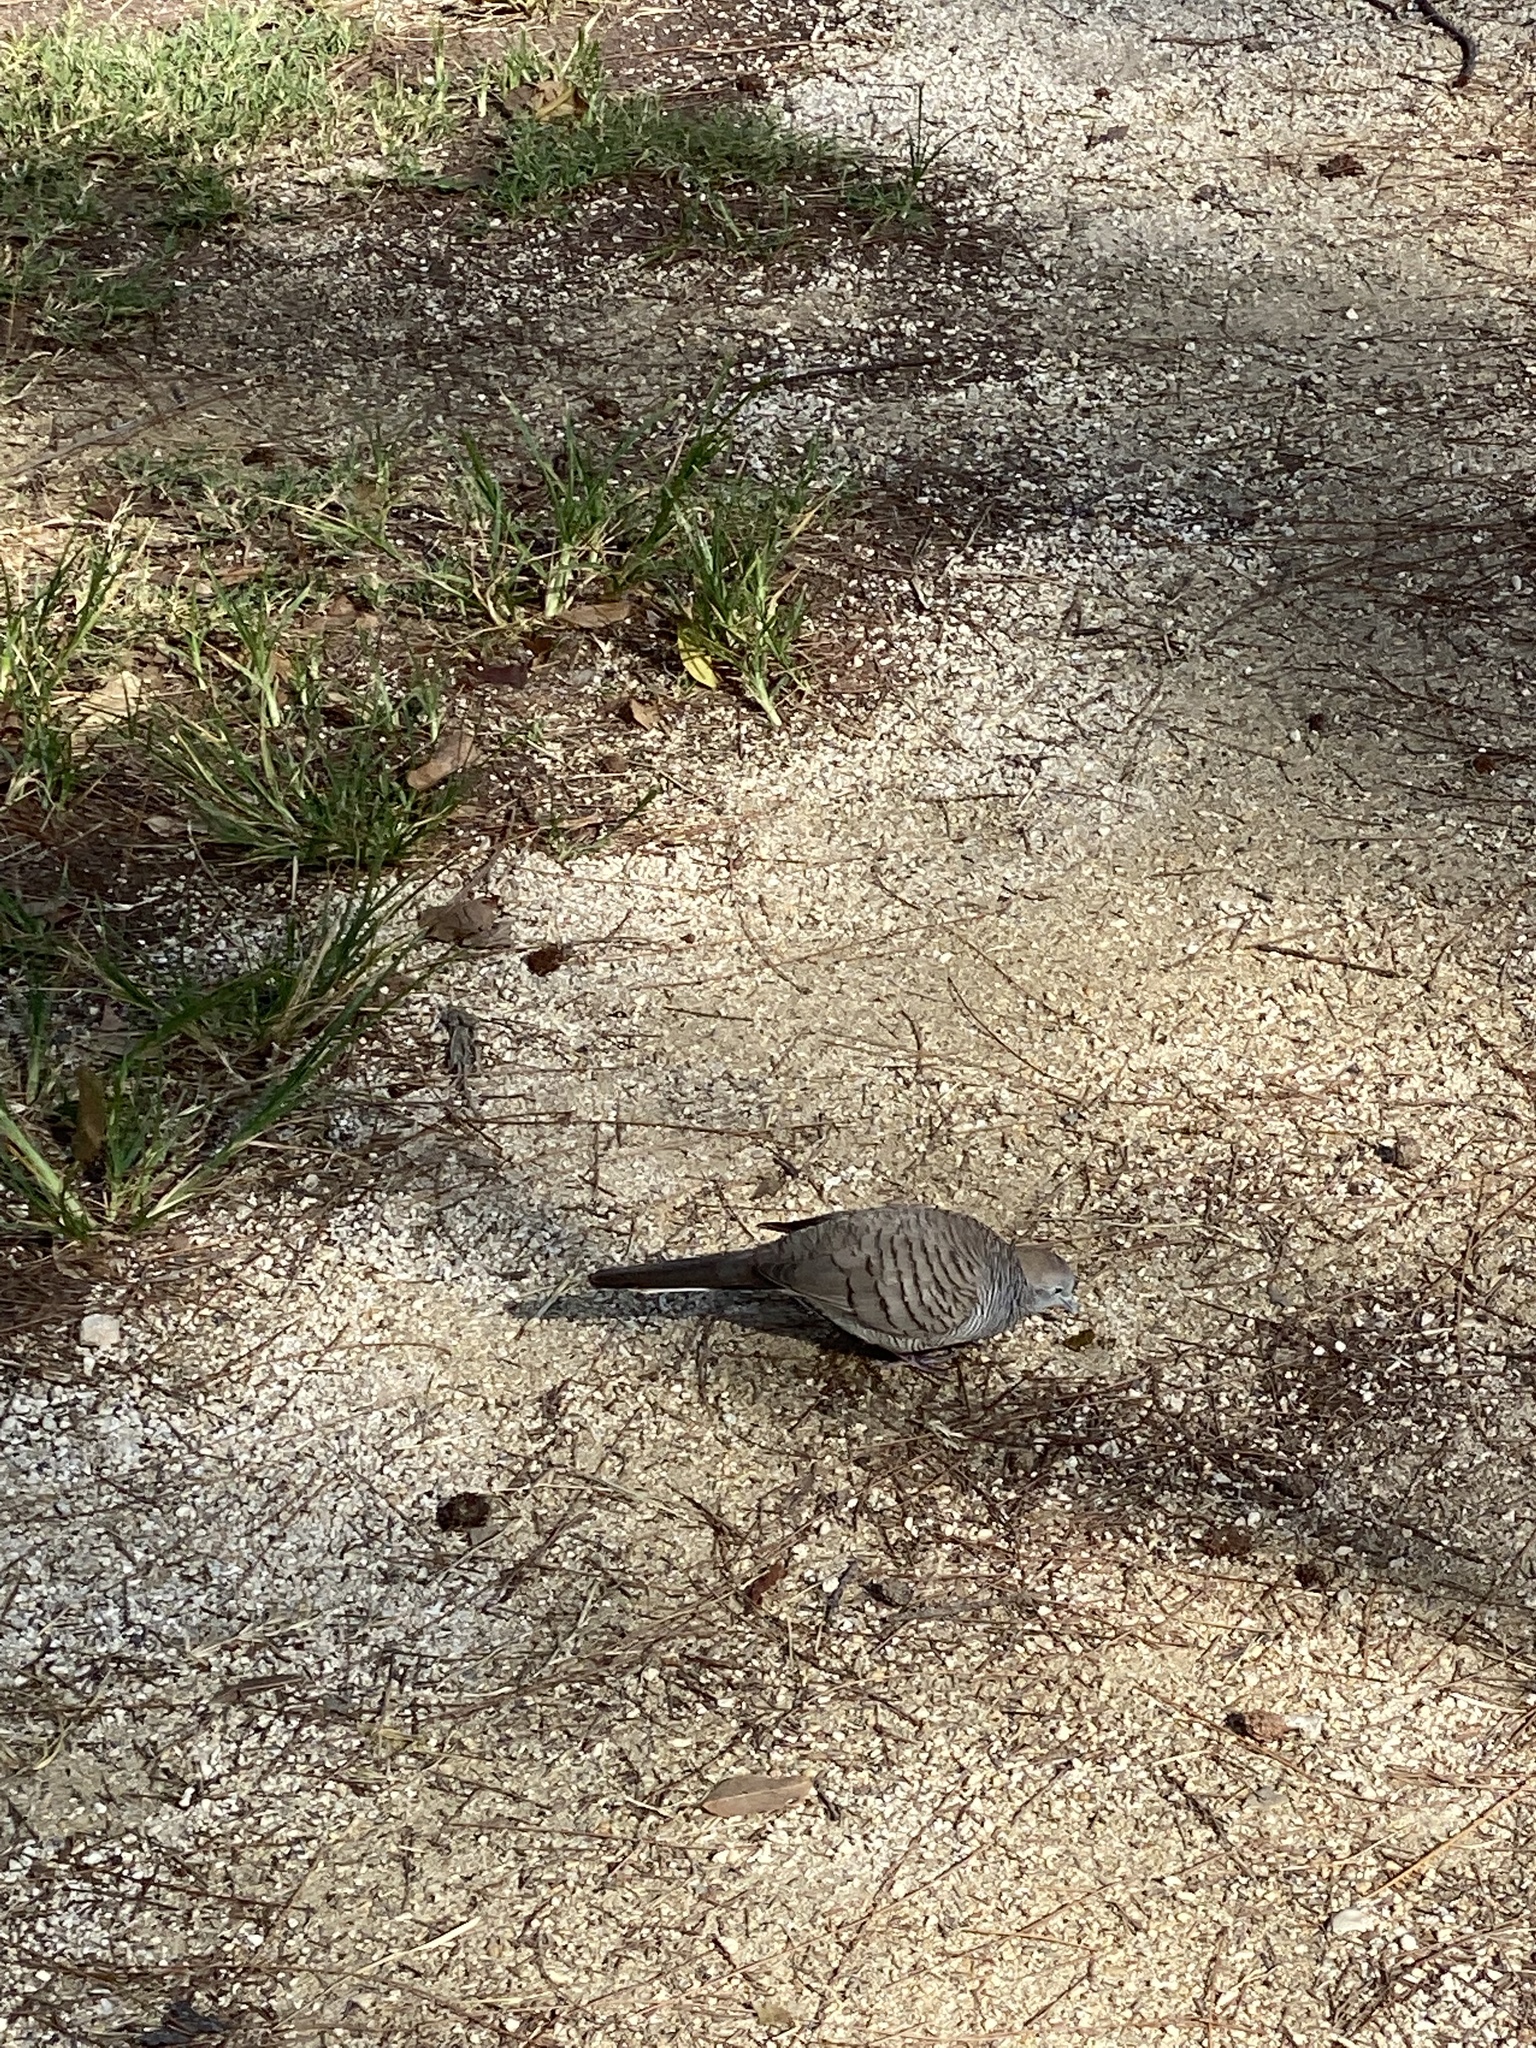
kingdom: Animalia
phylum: Chordata
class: Aves
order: Columbiformes
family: Columbidae
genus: Geopelia
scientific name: Geopelia striata
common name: Zebra dove
